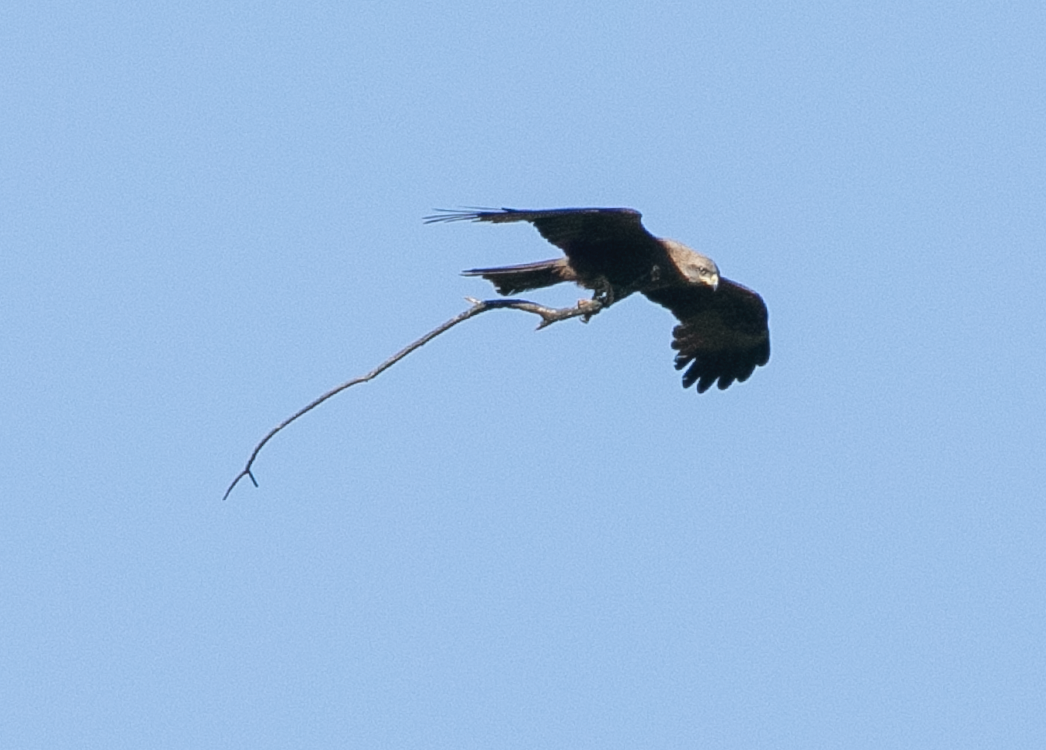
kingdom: Animalia
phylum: Chordata
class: Aves
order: Accipitriformes
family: Accipitridae
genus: Milvus
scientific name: Milvus migrans
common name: Black kite
